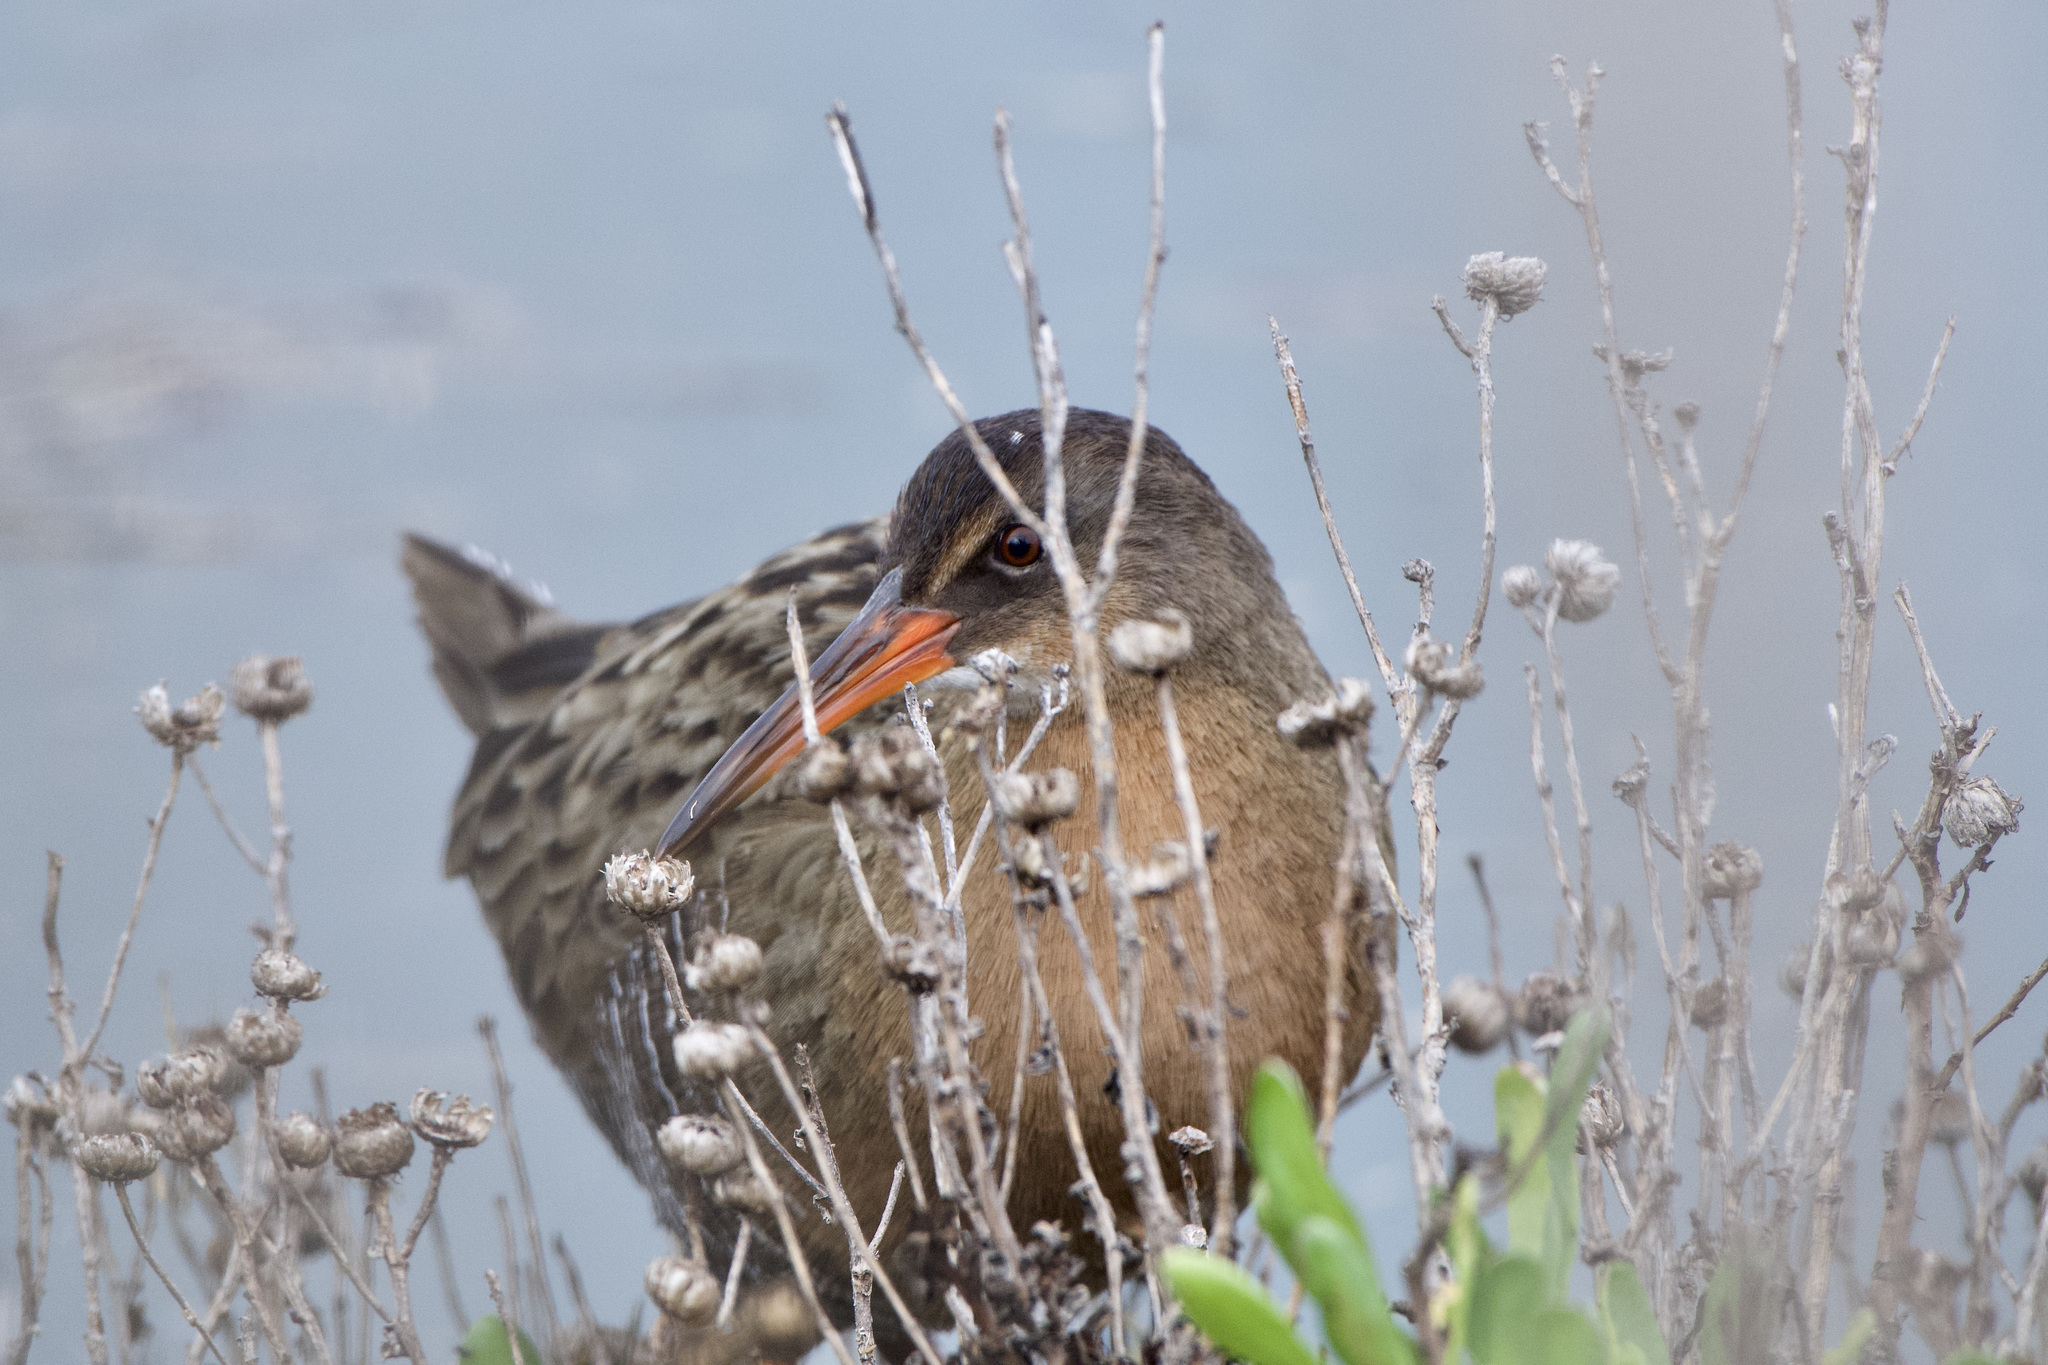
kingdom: Animalia
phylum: Chordata
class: Aves
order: Gruiformes
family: Rallidae
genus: Rallus
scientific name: Rallus obsoletus
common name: Ridgway's rail
